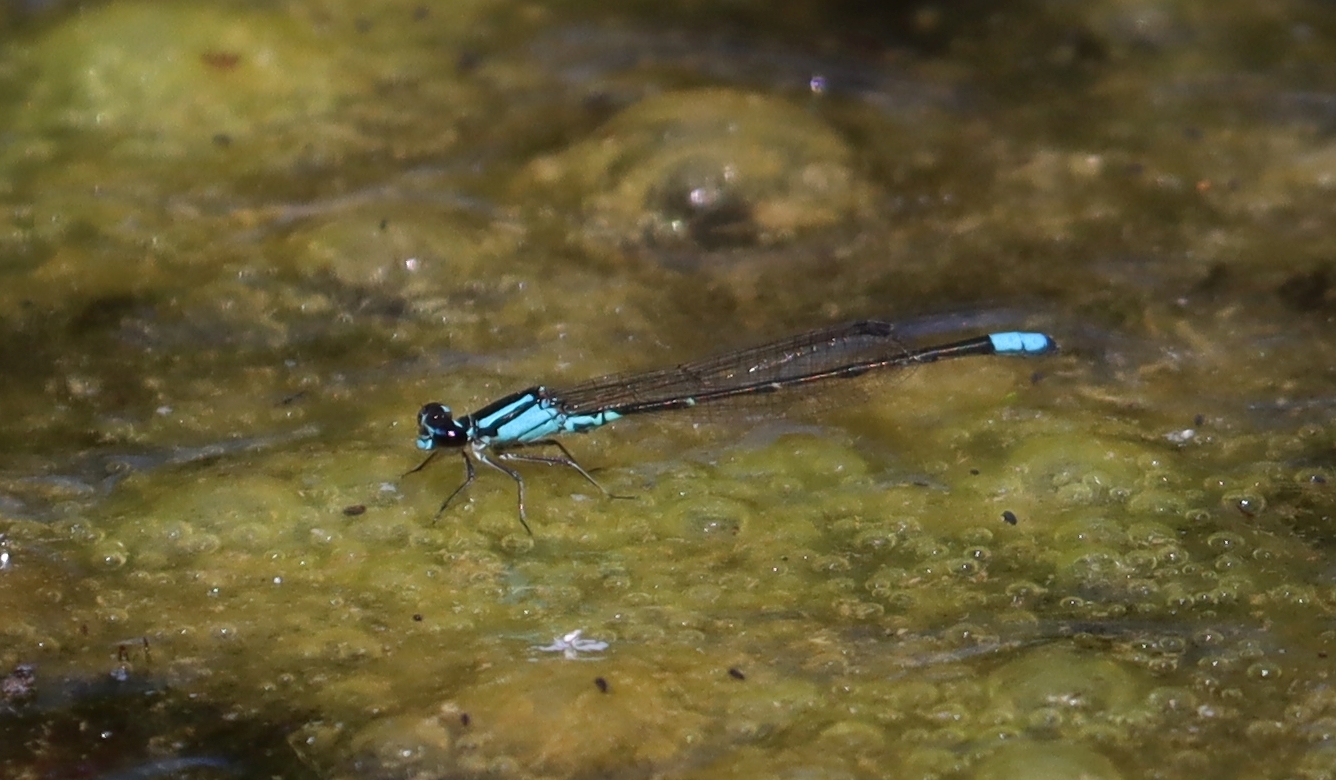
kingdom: Animalia
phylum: Arthropoda
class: Insecta
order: Odonata
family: Coenagrionidae
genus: Enallagma
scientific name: Enallagma geminatum
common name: Skimming bluet
